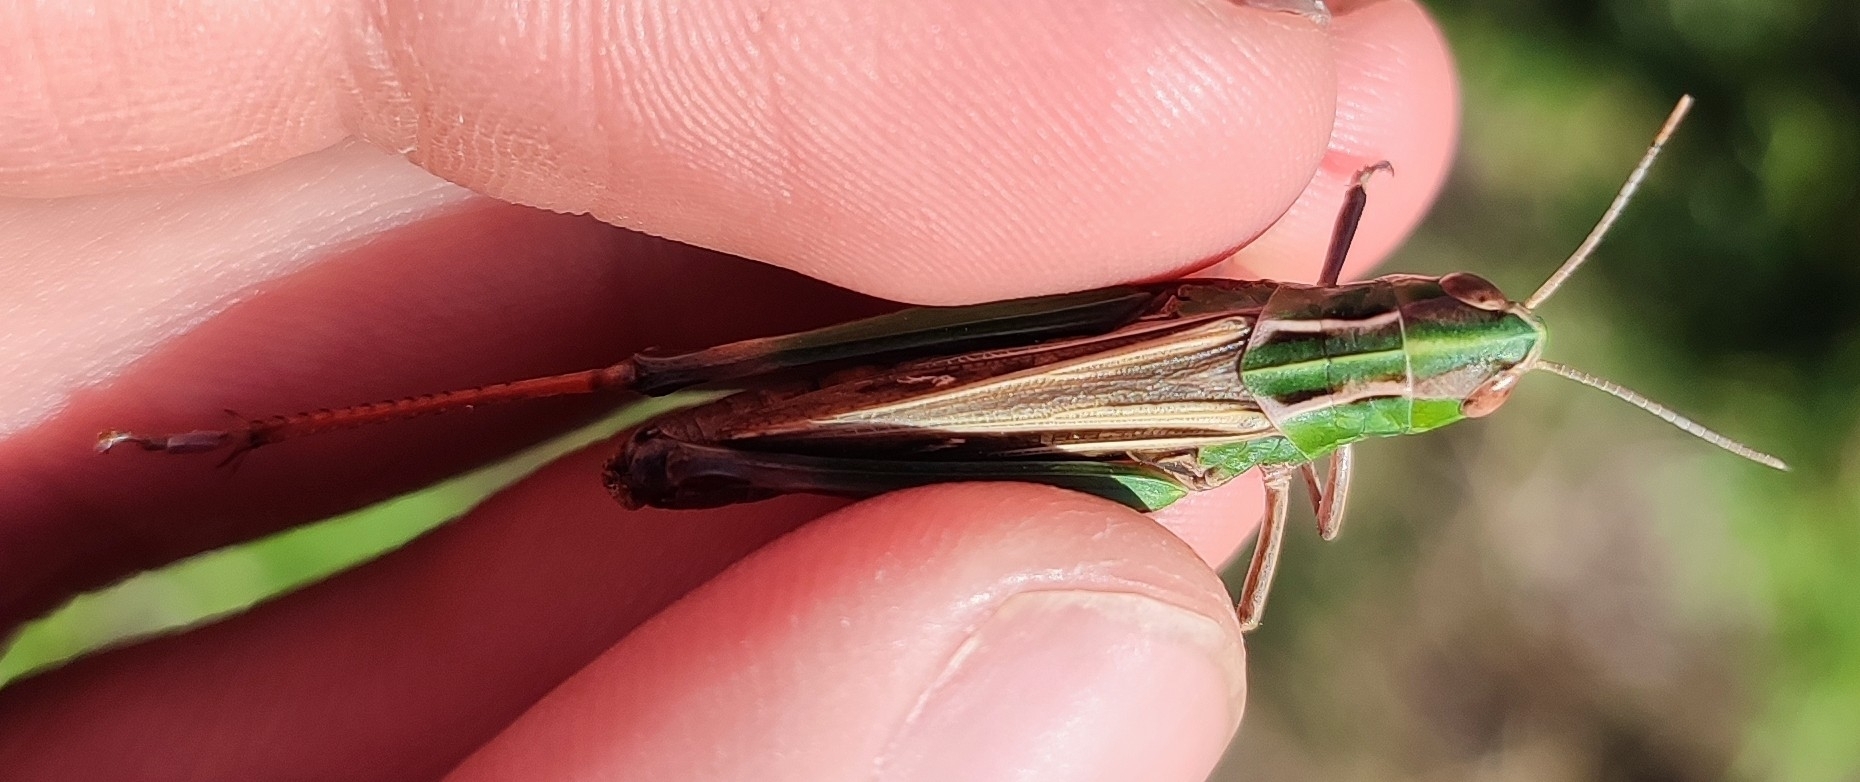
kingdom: Animalia
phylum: Arthropoda
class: Insecta
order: Orthoptera
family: Acrididae
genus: Stenobothrus
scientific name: Stenobothrus lineatus
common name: Stripe-winged grasshopper
